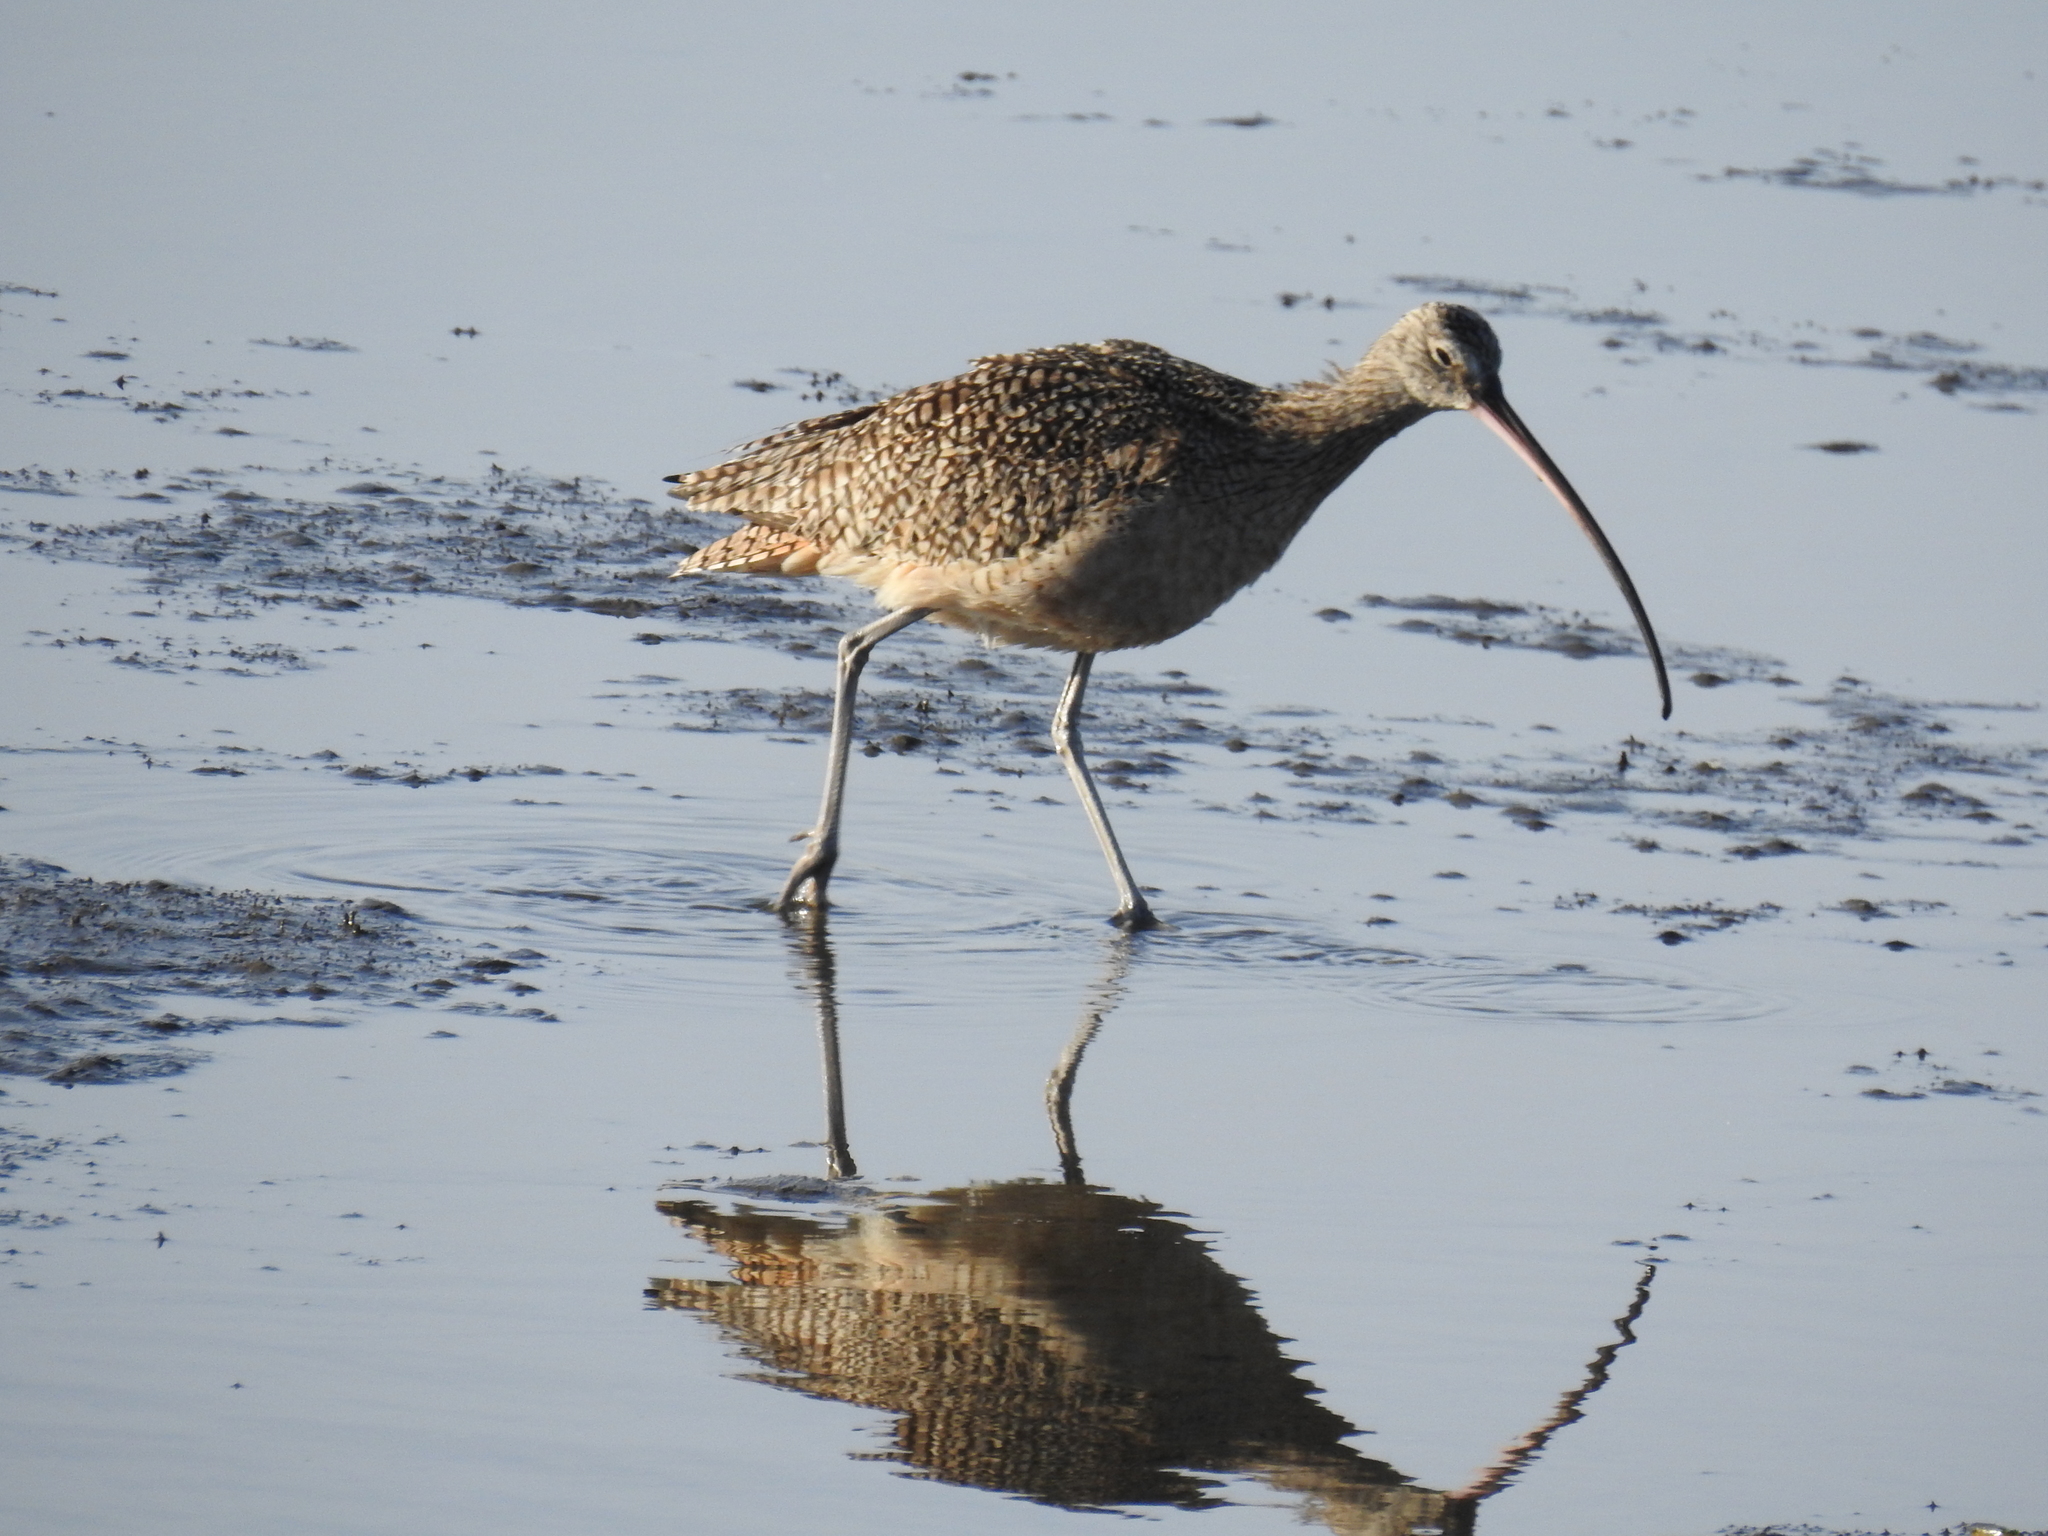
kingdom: Animalia
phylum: Chordata
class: Aves
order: Charadriiformes
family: Scolopacidae
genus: Numenius
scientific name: Numenius americanus
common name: Long-billed curlew
